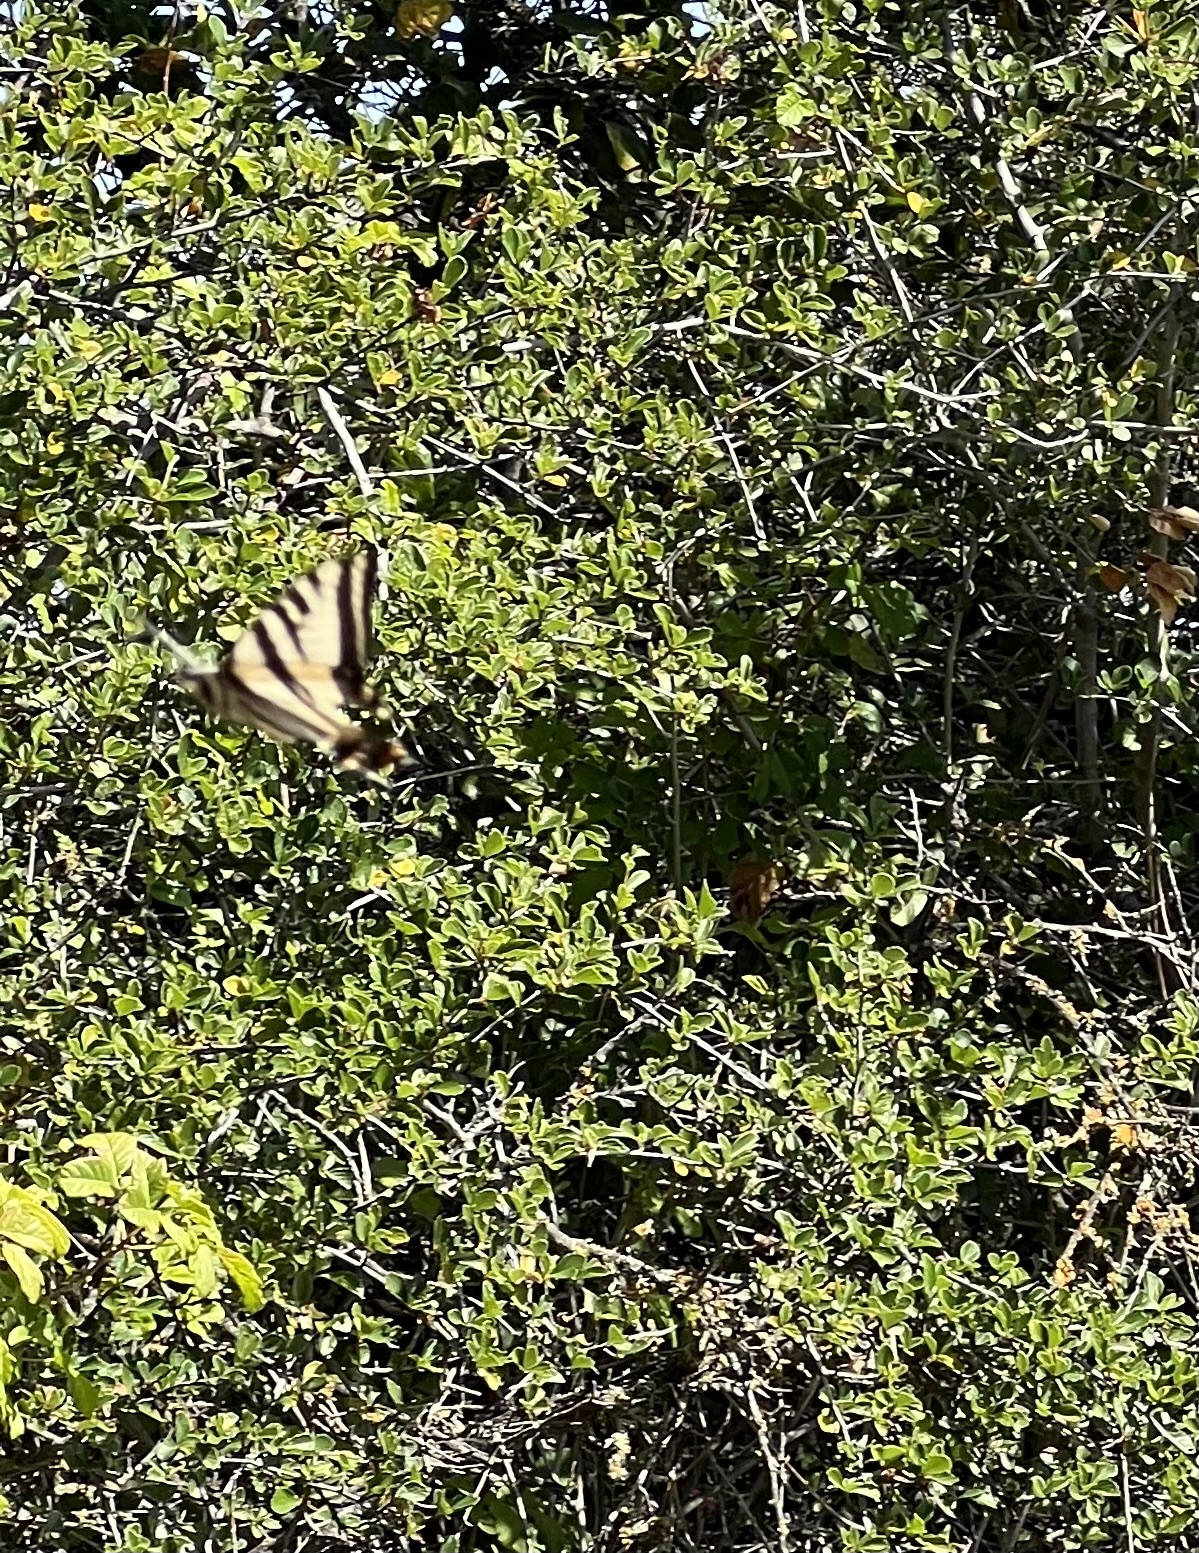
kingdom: Animalia
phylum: Arthropoda
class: Insecta
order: Lepidoptera
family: Papilionidae
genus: Papilio
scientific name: Papilio rutulus
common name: Western tiger swallowtail
